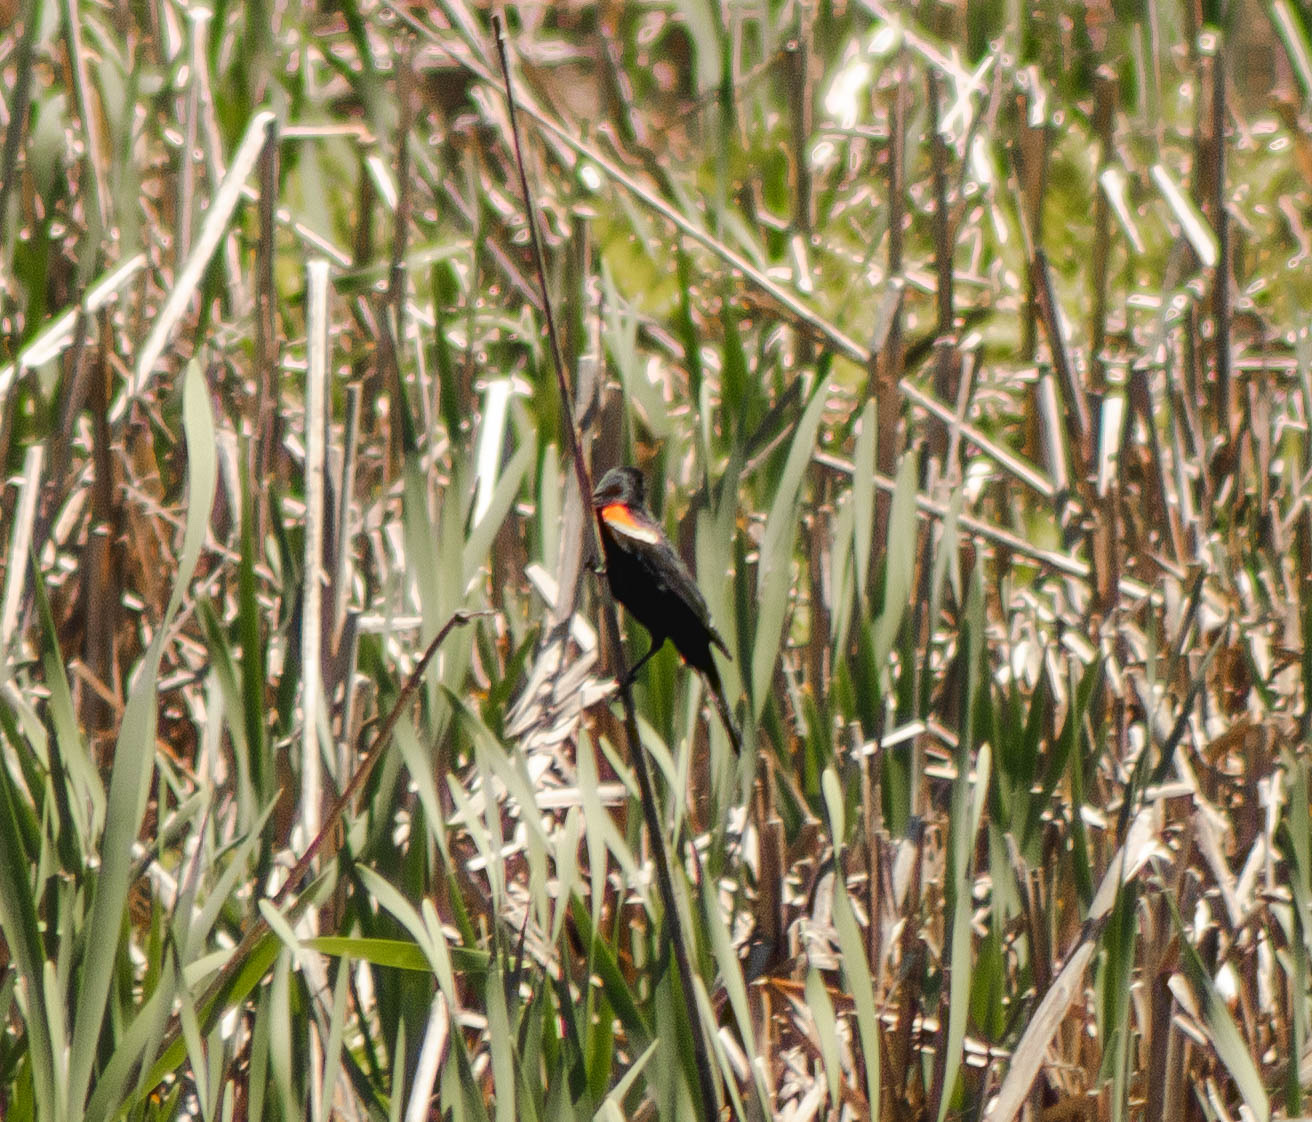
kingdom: Animalia
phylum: Chordata
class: Aves
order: Passeriformes
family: Icteridae
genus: Agelaius
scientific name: Agelaius phoeniceus
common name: Red-winged blackbird
